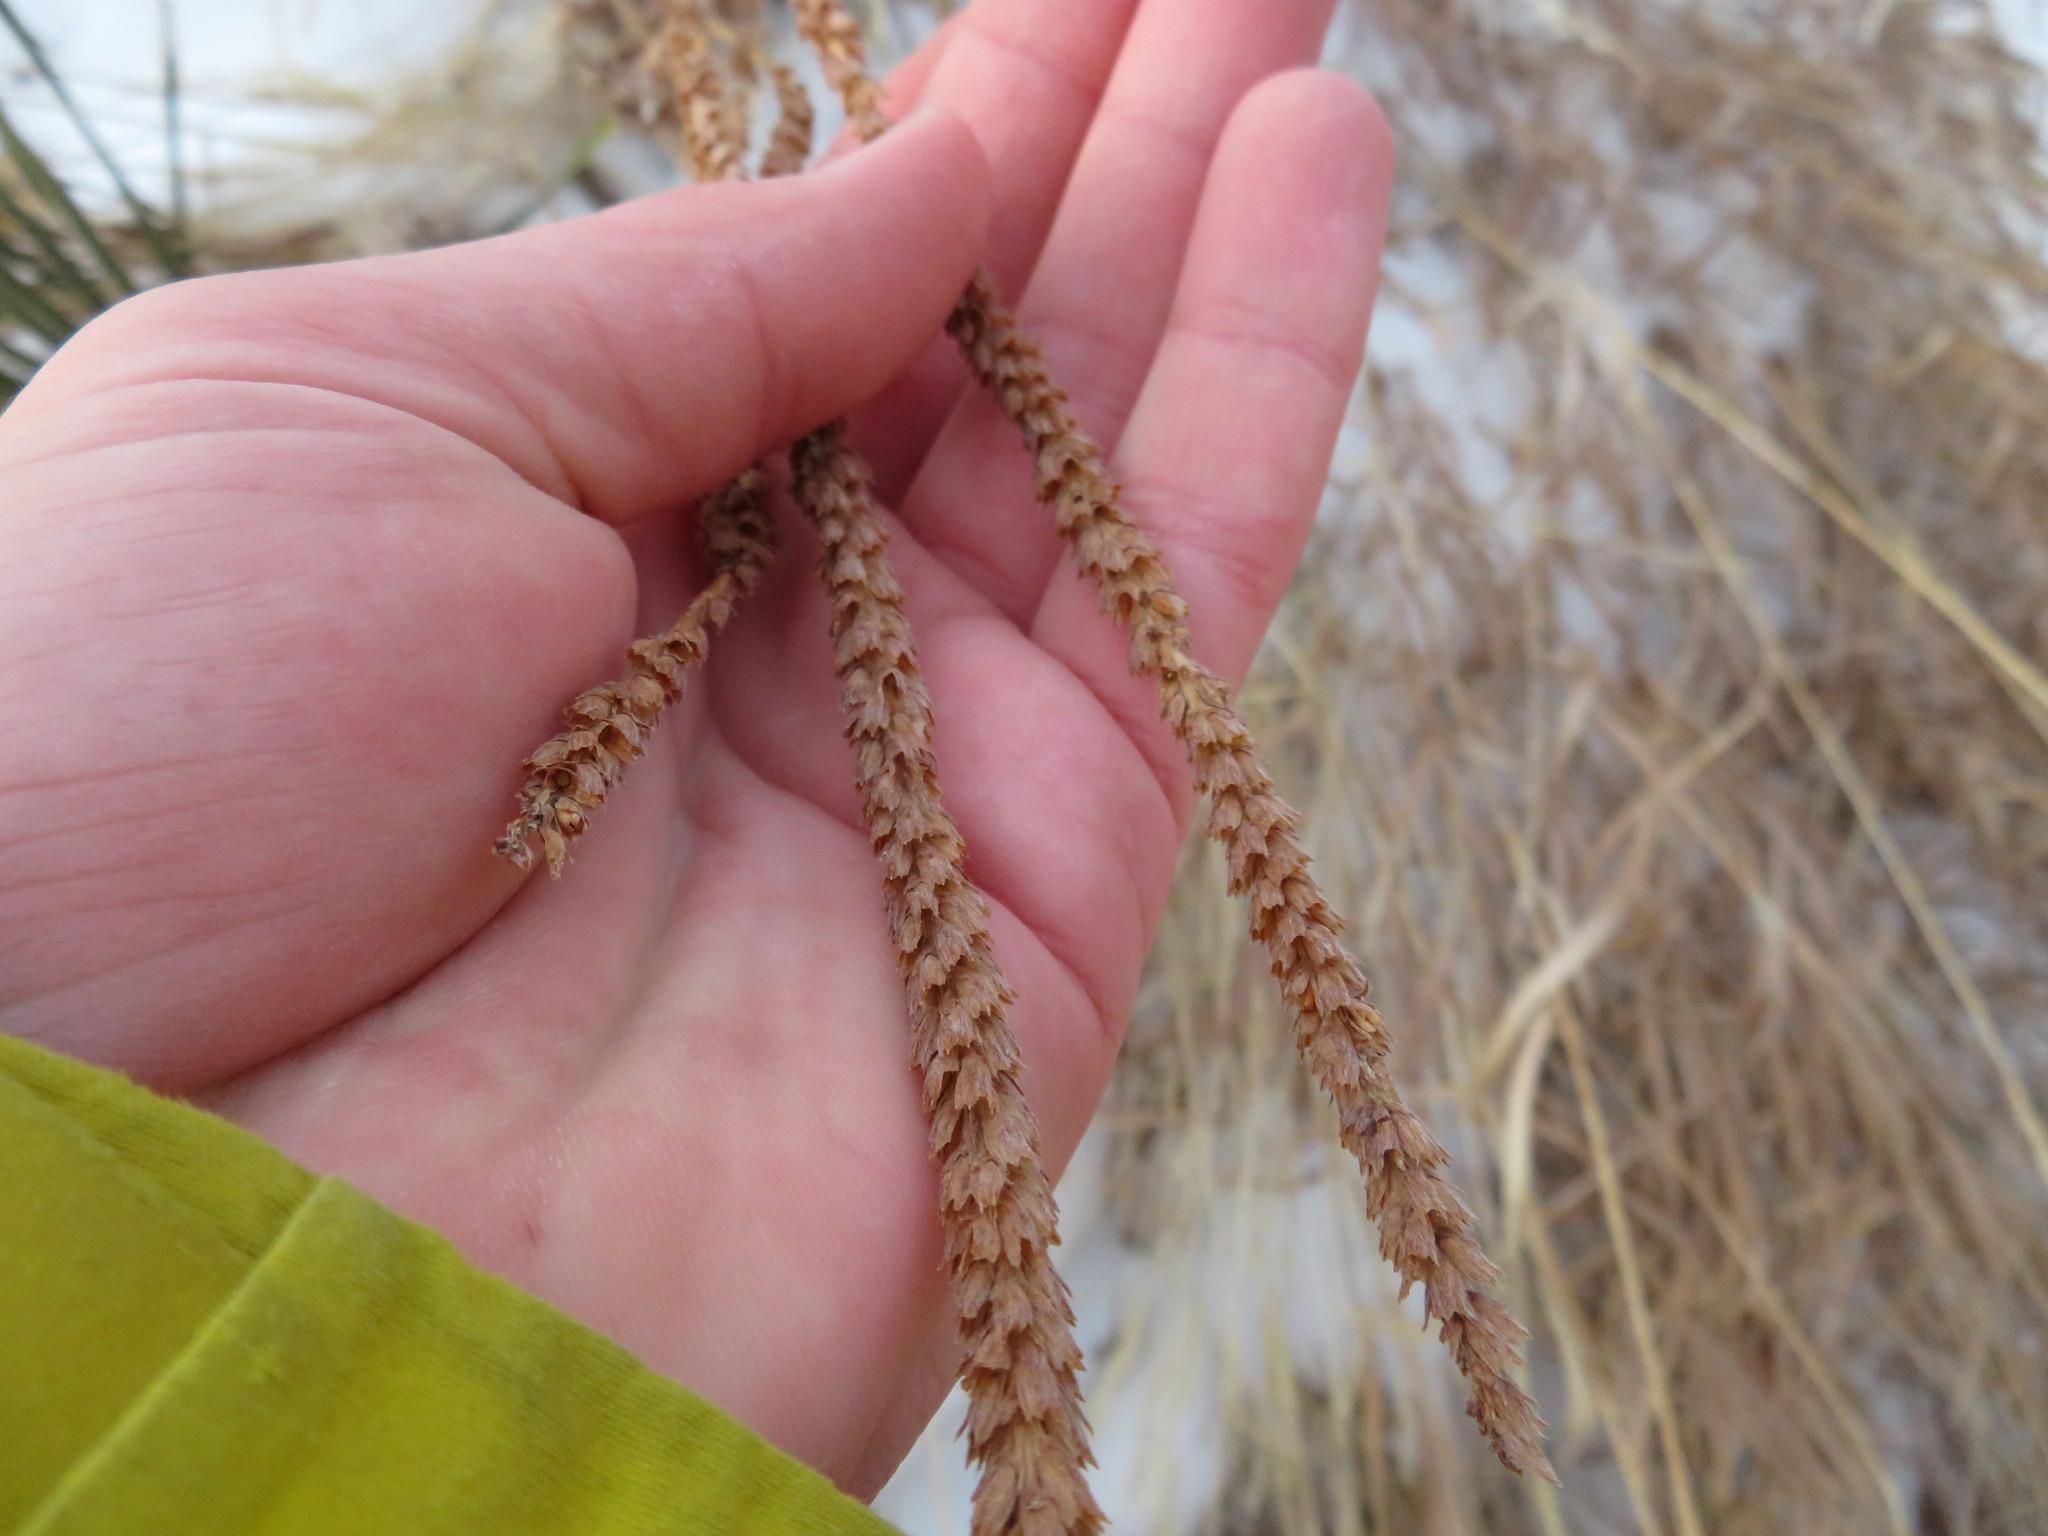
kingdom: Plantae
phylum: Tracheophyta
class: Magnoliopsida
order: Lamiales
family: Verbenaceae
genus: Verbena
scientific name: Verbena stricta
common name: Hoary vervain
